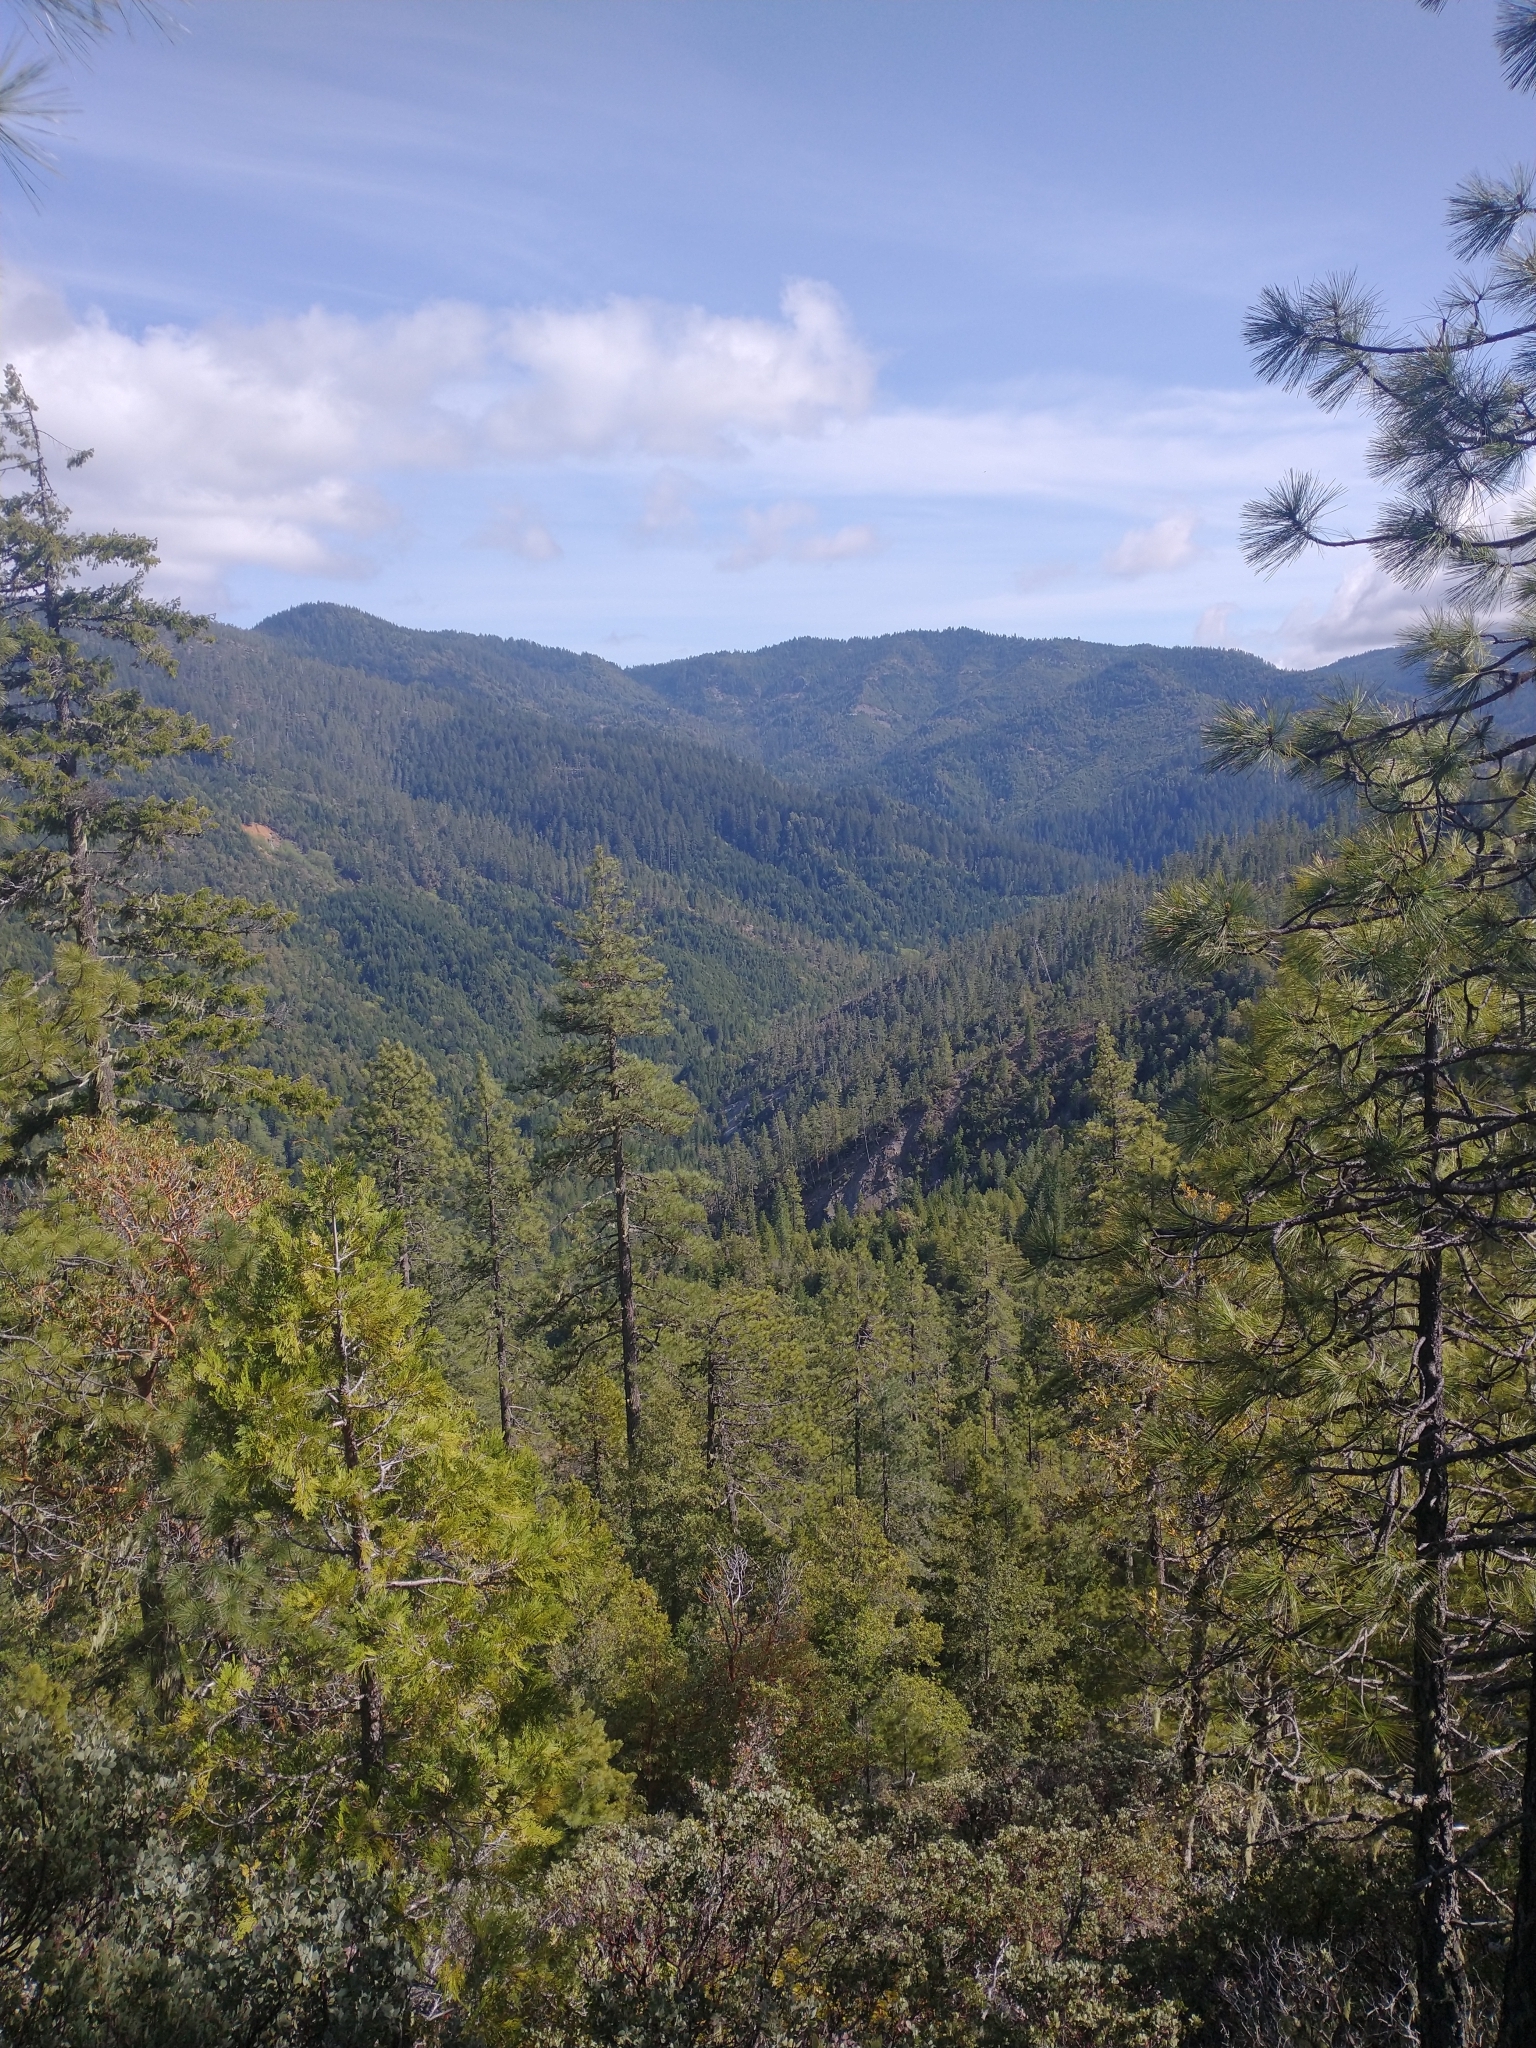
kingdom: Plantae
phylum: Tracheophyta
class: Pinopsida
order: Pinales
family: Cupressaceae
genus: Calocedrus
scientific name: Calocedrus decurrens
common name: Californian incense-cedar
